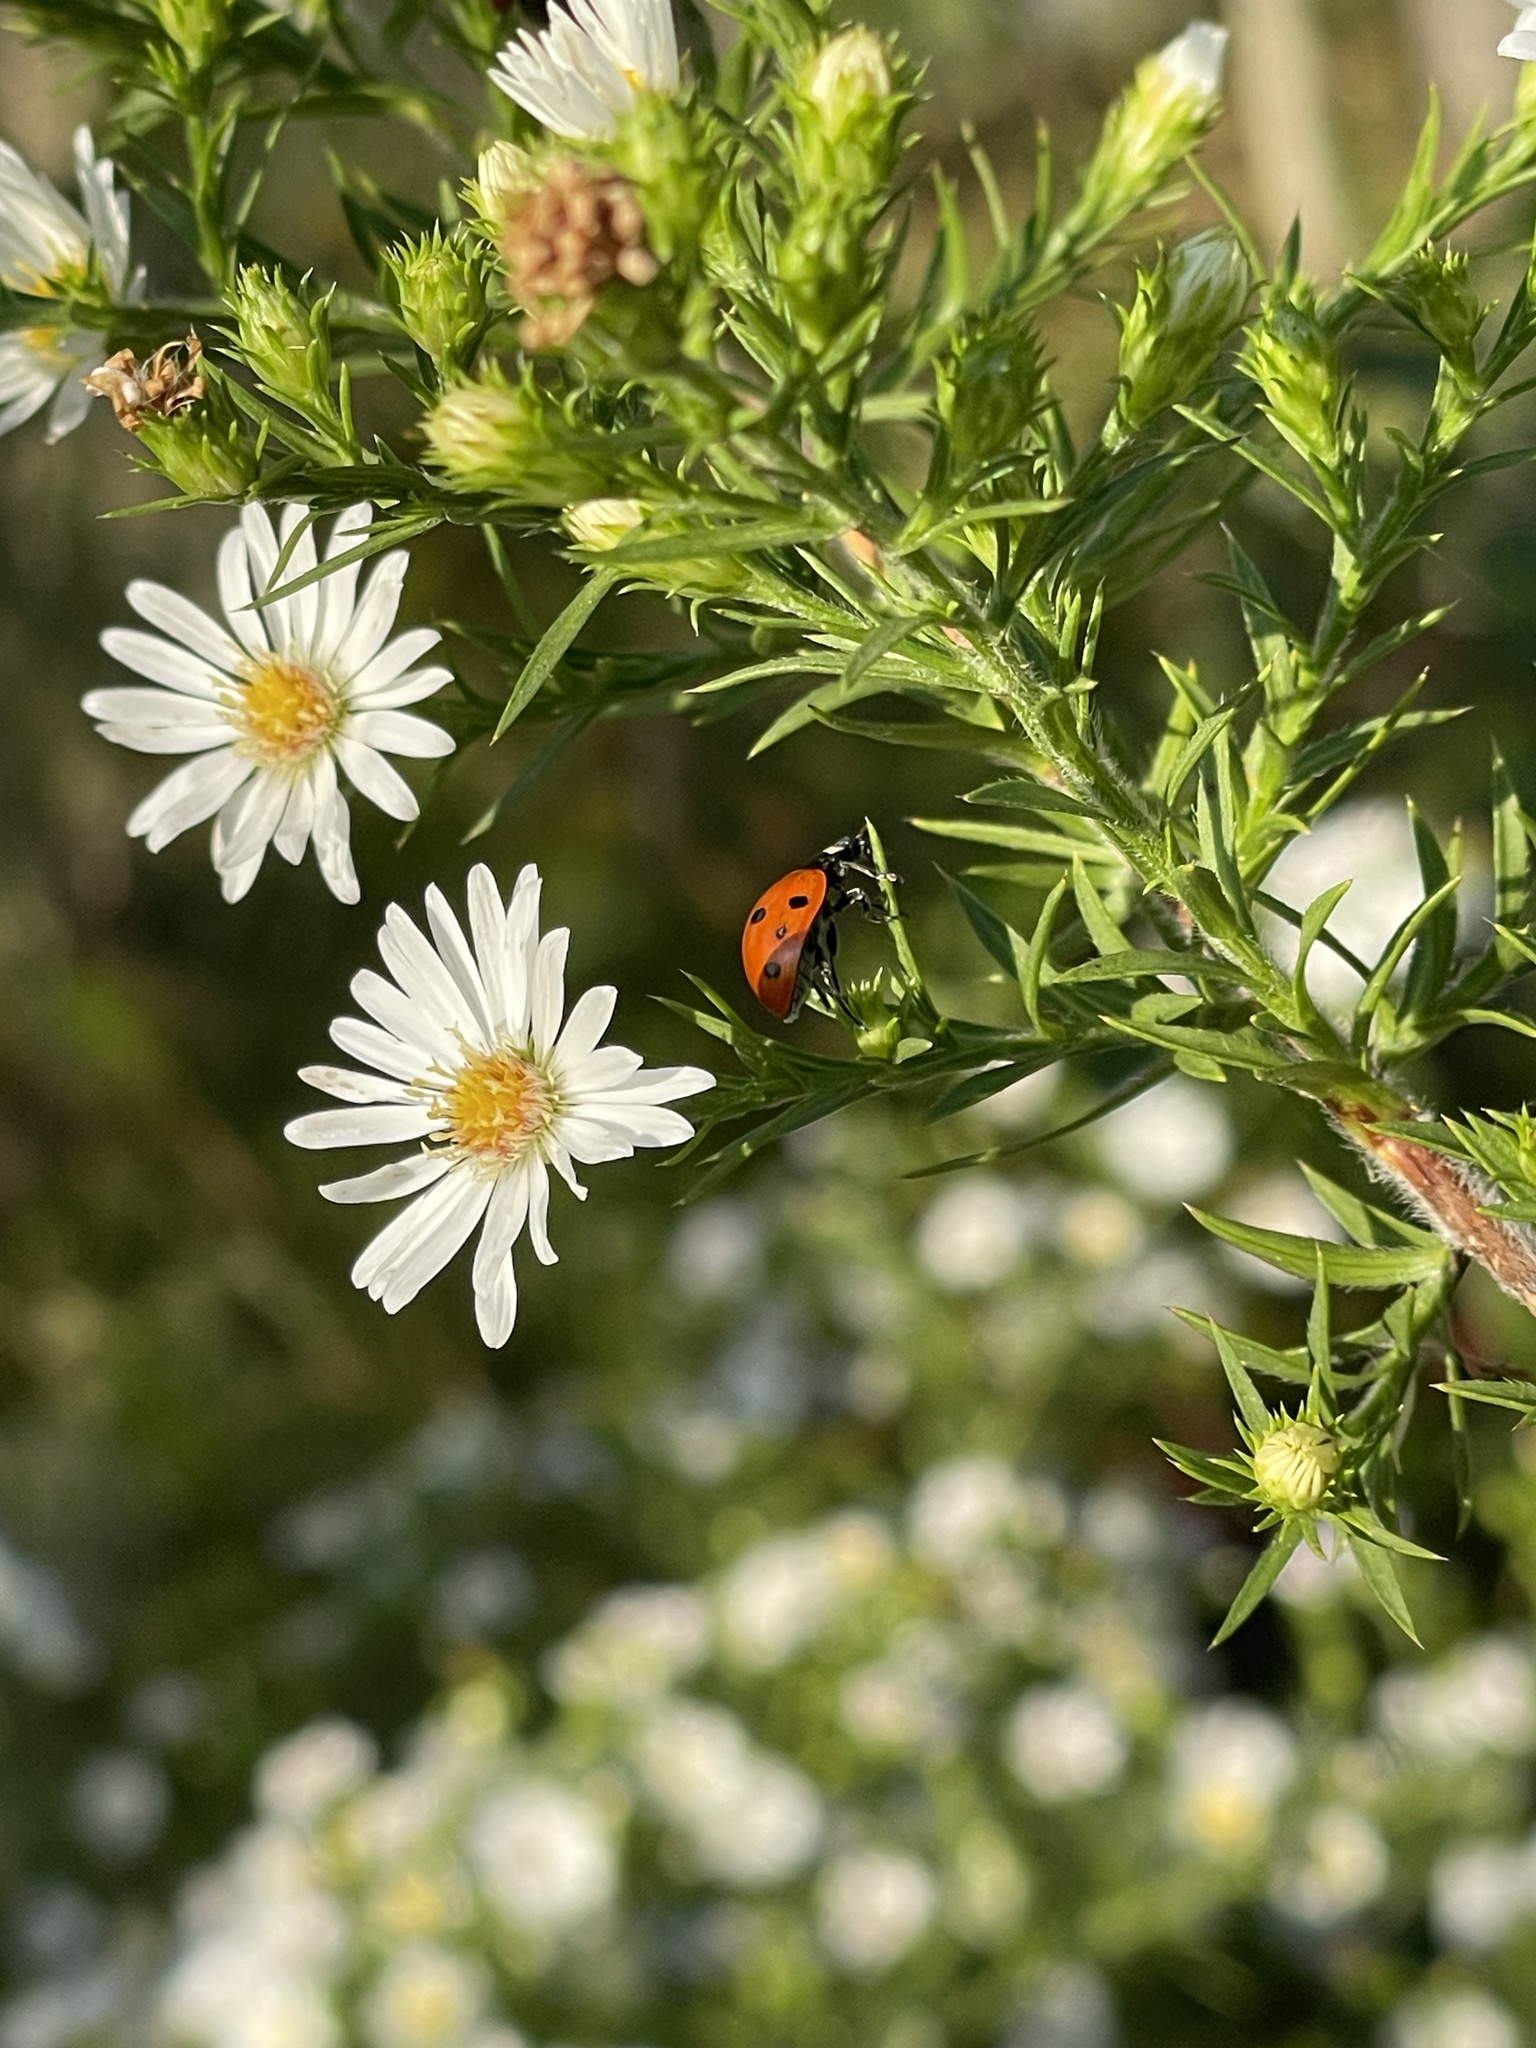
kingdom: Animalia
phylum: Arthropoda
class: Insecta
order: Coleoptera
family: Coccinellidae
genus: Coccinella
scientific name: Coccinella septempunctata
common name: Sevenspotted lady beetle
